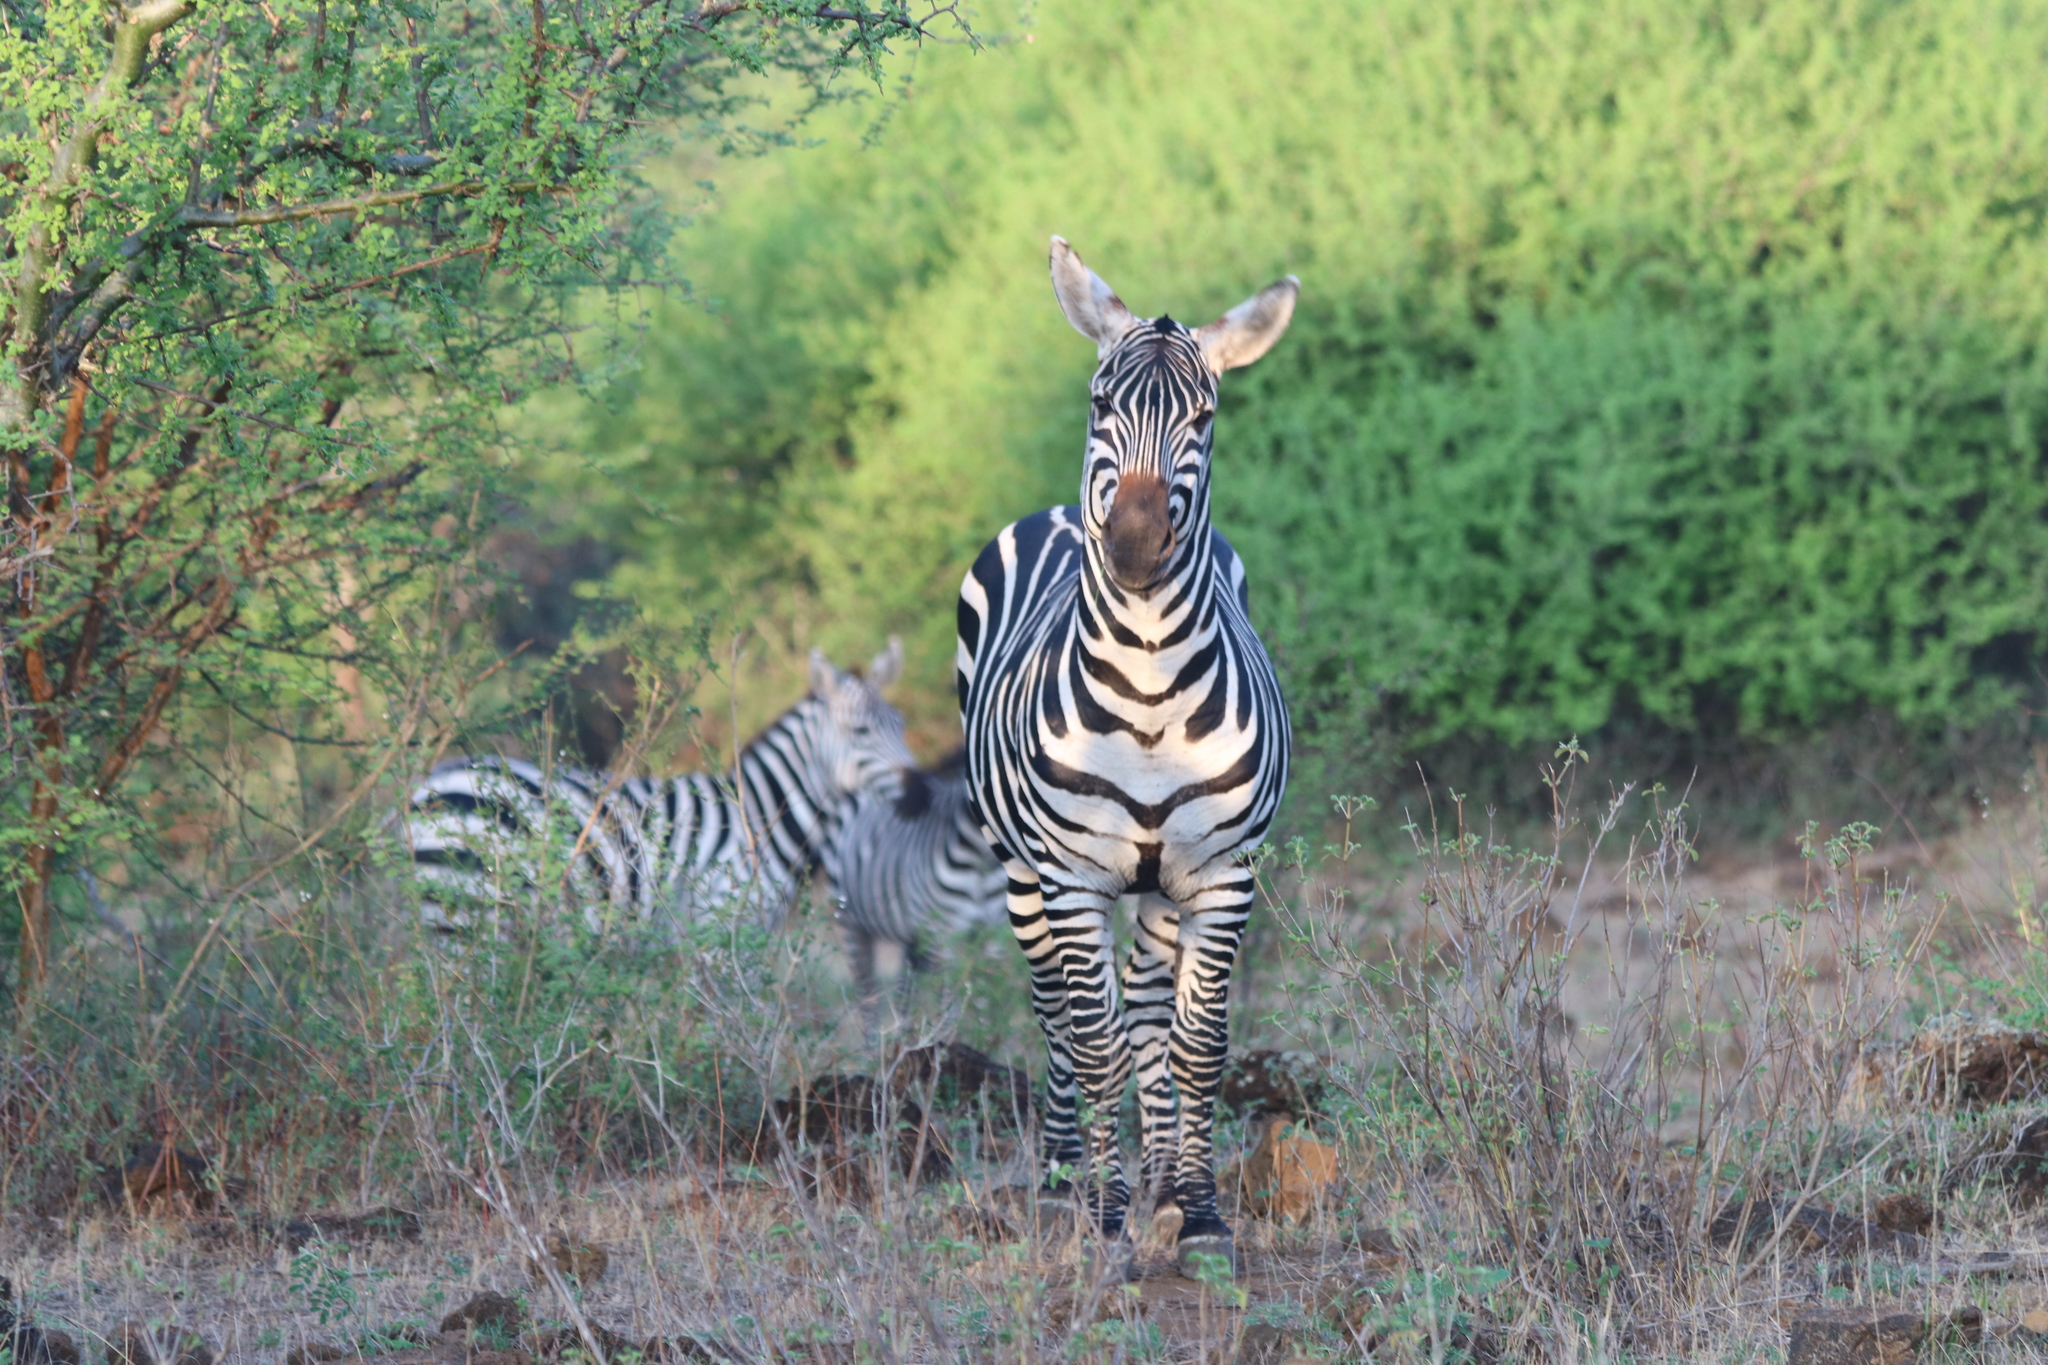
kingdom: Animalia
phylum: Chordata
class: Mammalia
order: Perissodactyla
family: Equidae
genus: Equus
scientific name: Equus quagga
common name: Plains zebra
